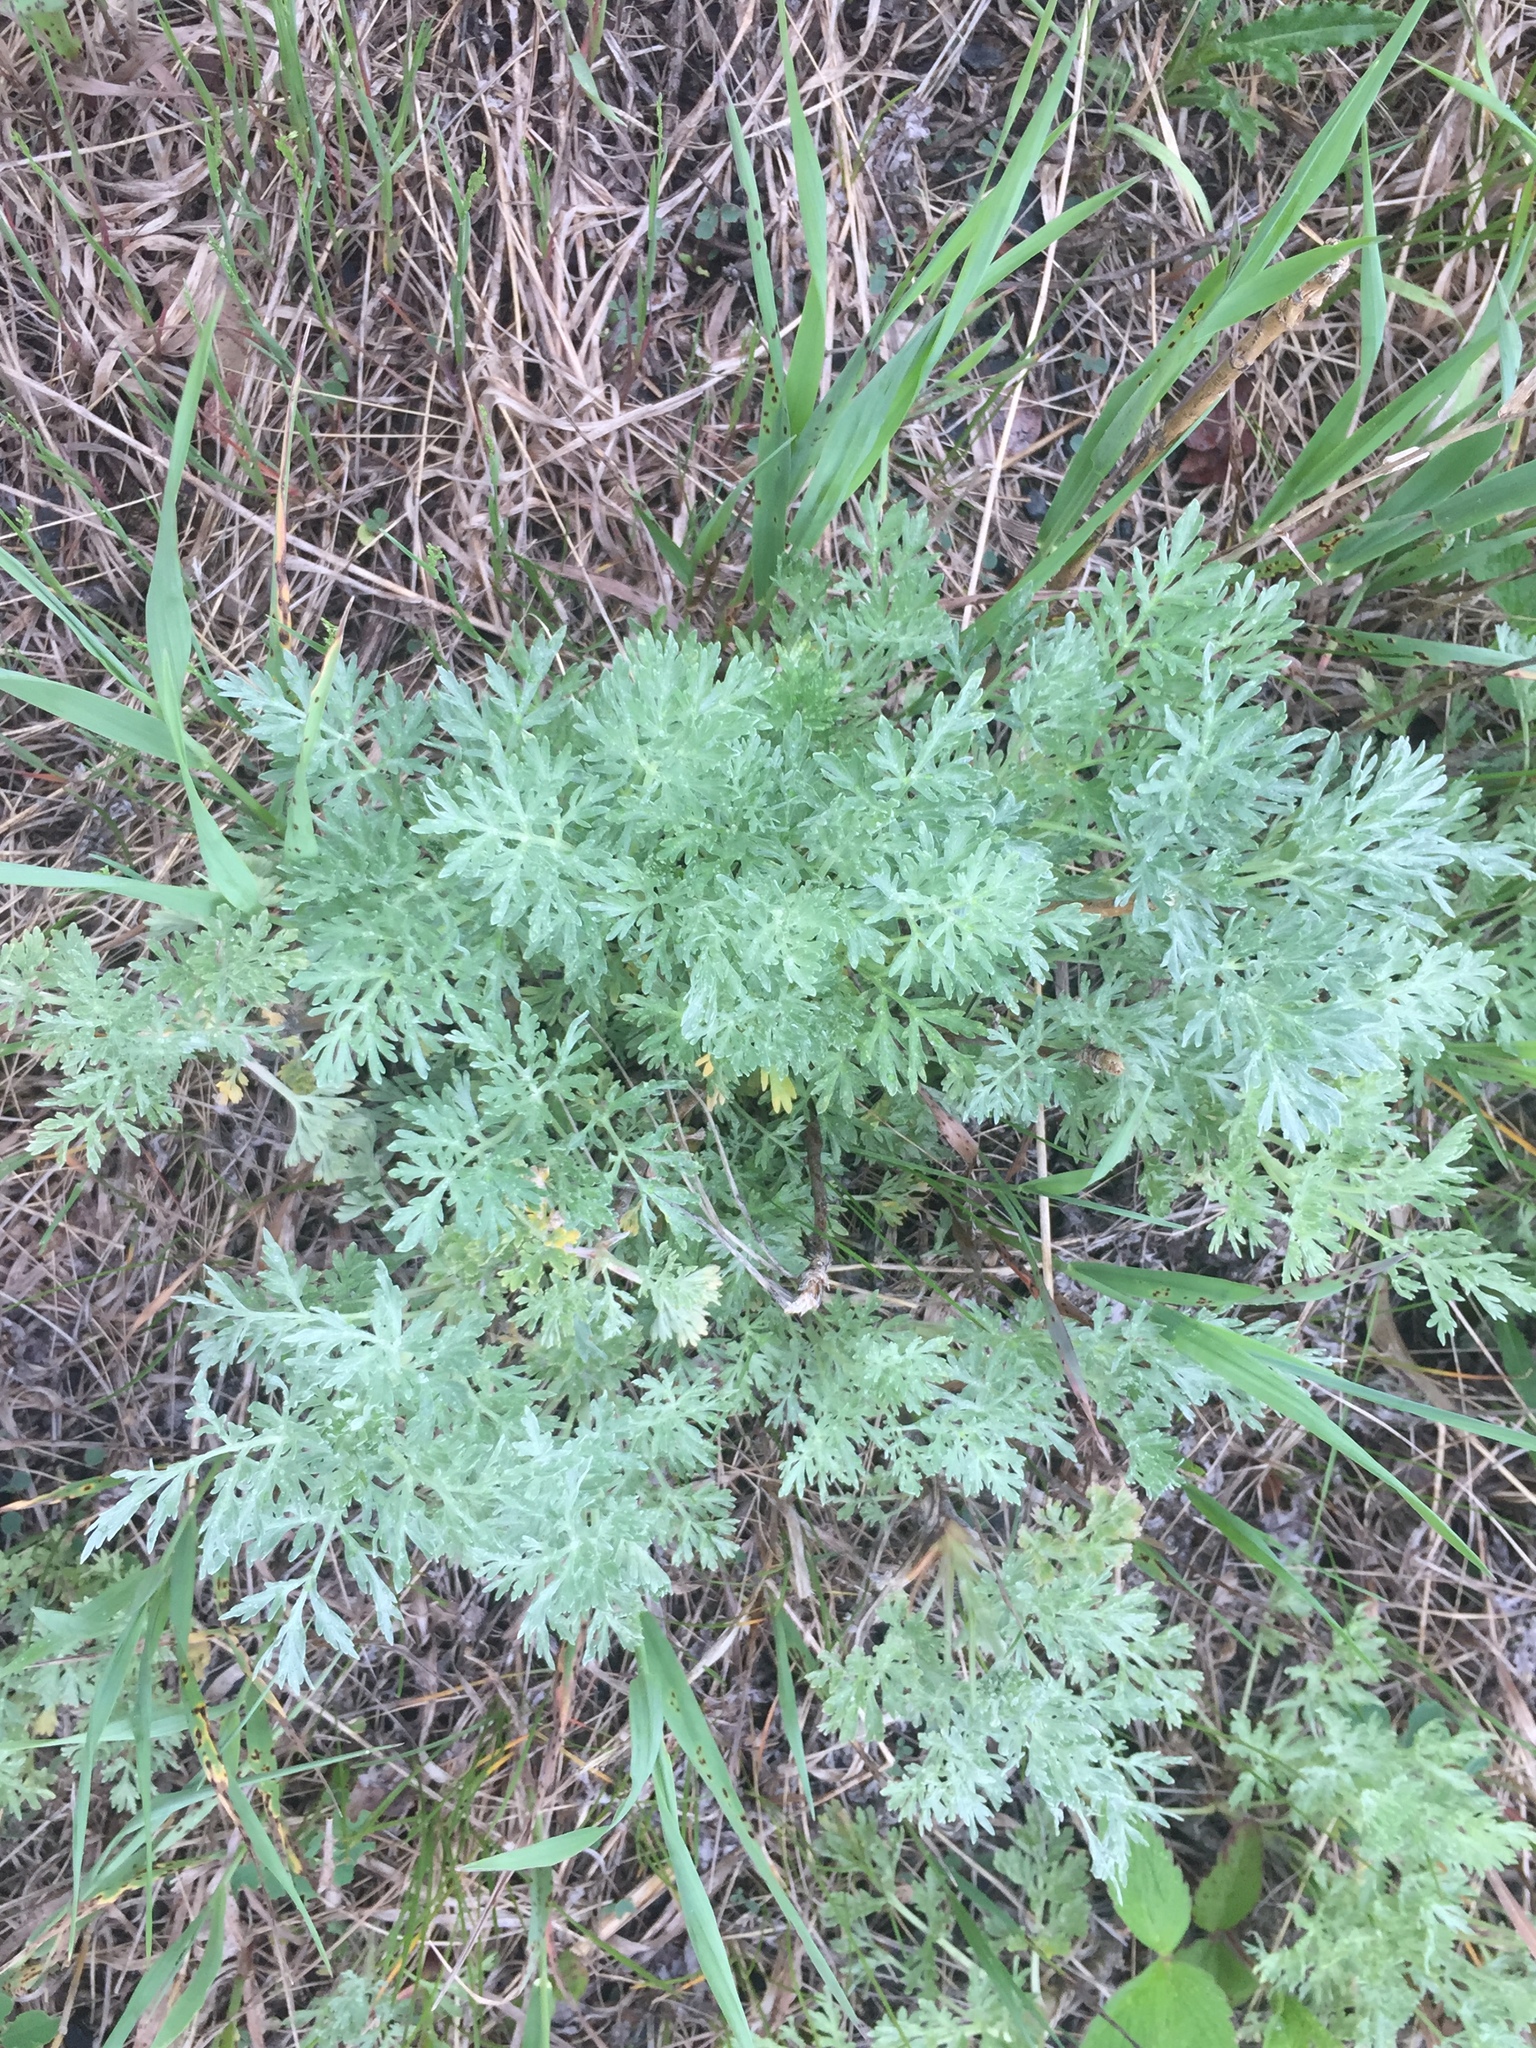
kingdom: Plantae
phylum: Tracheophyta
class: Magnoliopsida
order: Asterales
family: Asteraceae
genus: Artemisia
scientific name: Artemisia absinthium
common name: Wormwood
